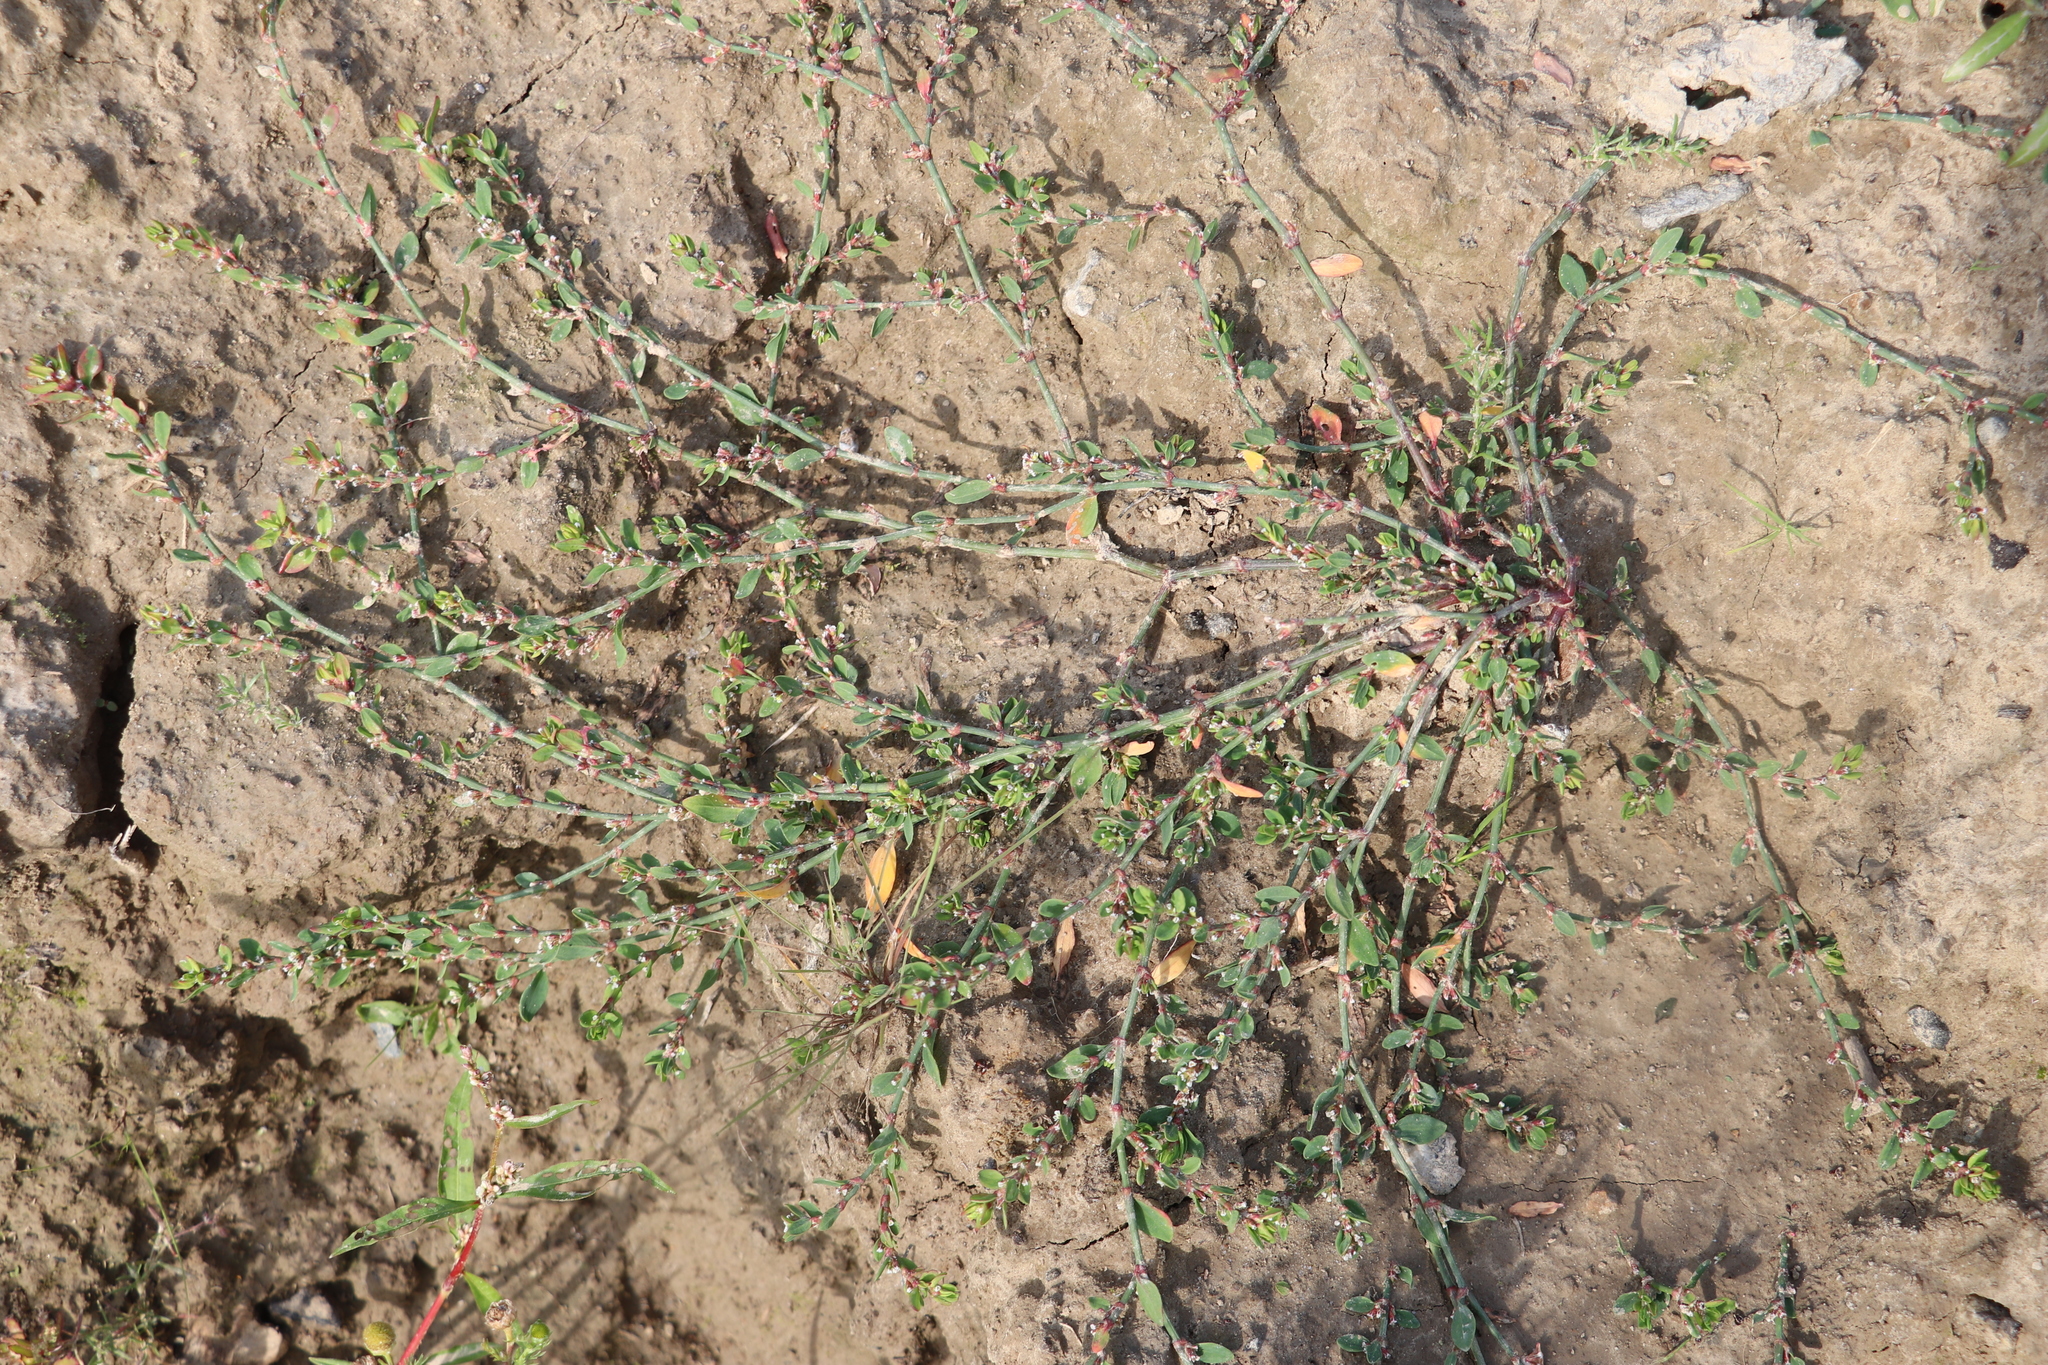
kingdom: Plantae
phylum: Tracheophyta
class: Magnoliopsida
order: Caryophyllales
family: Polygonaceae
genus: Polygonum
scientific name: Polygonum
